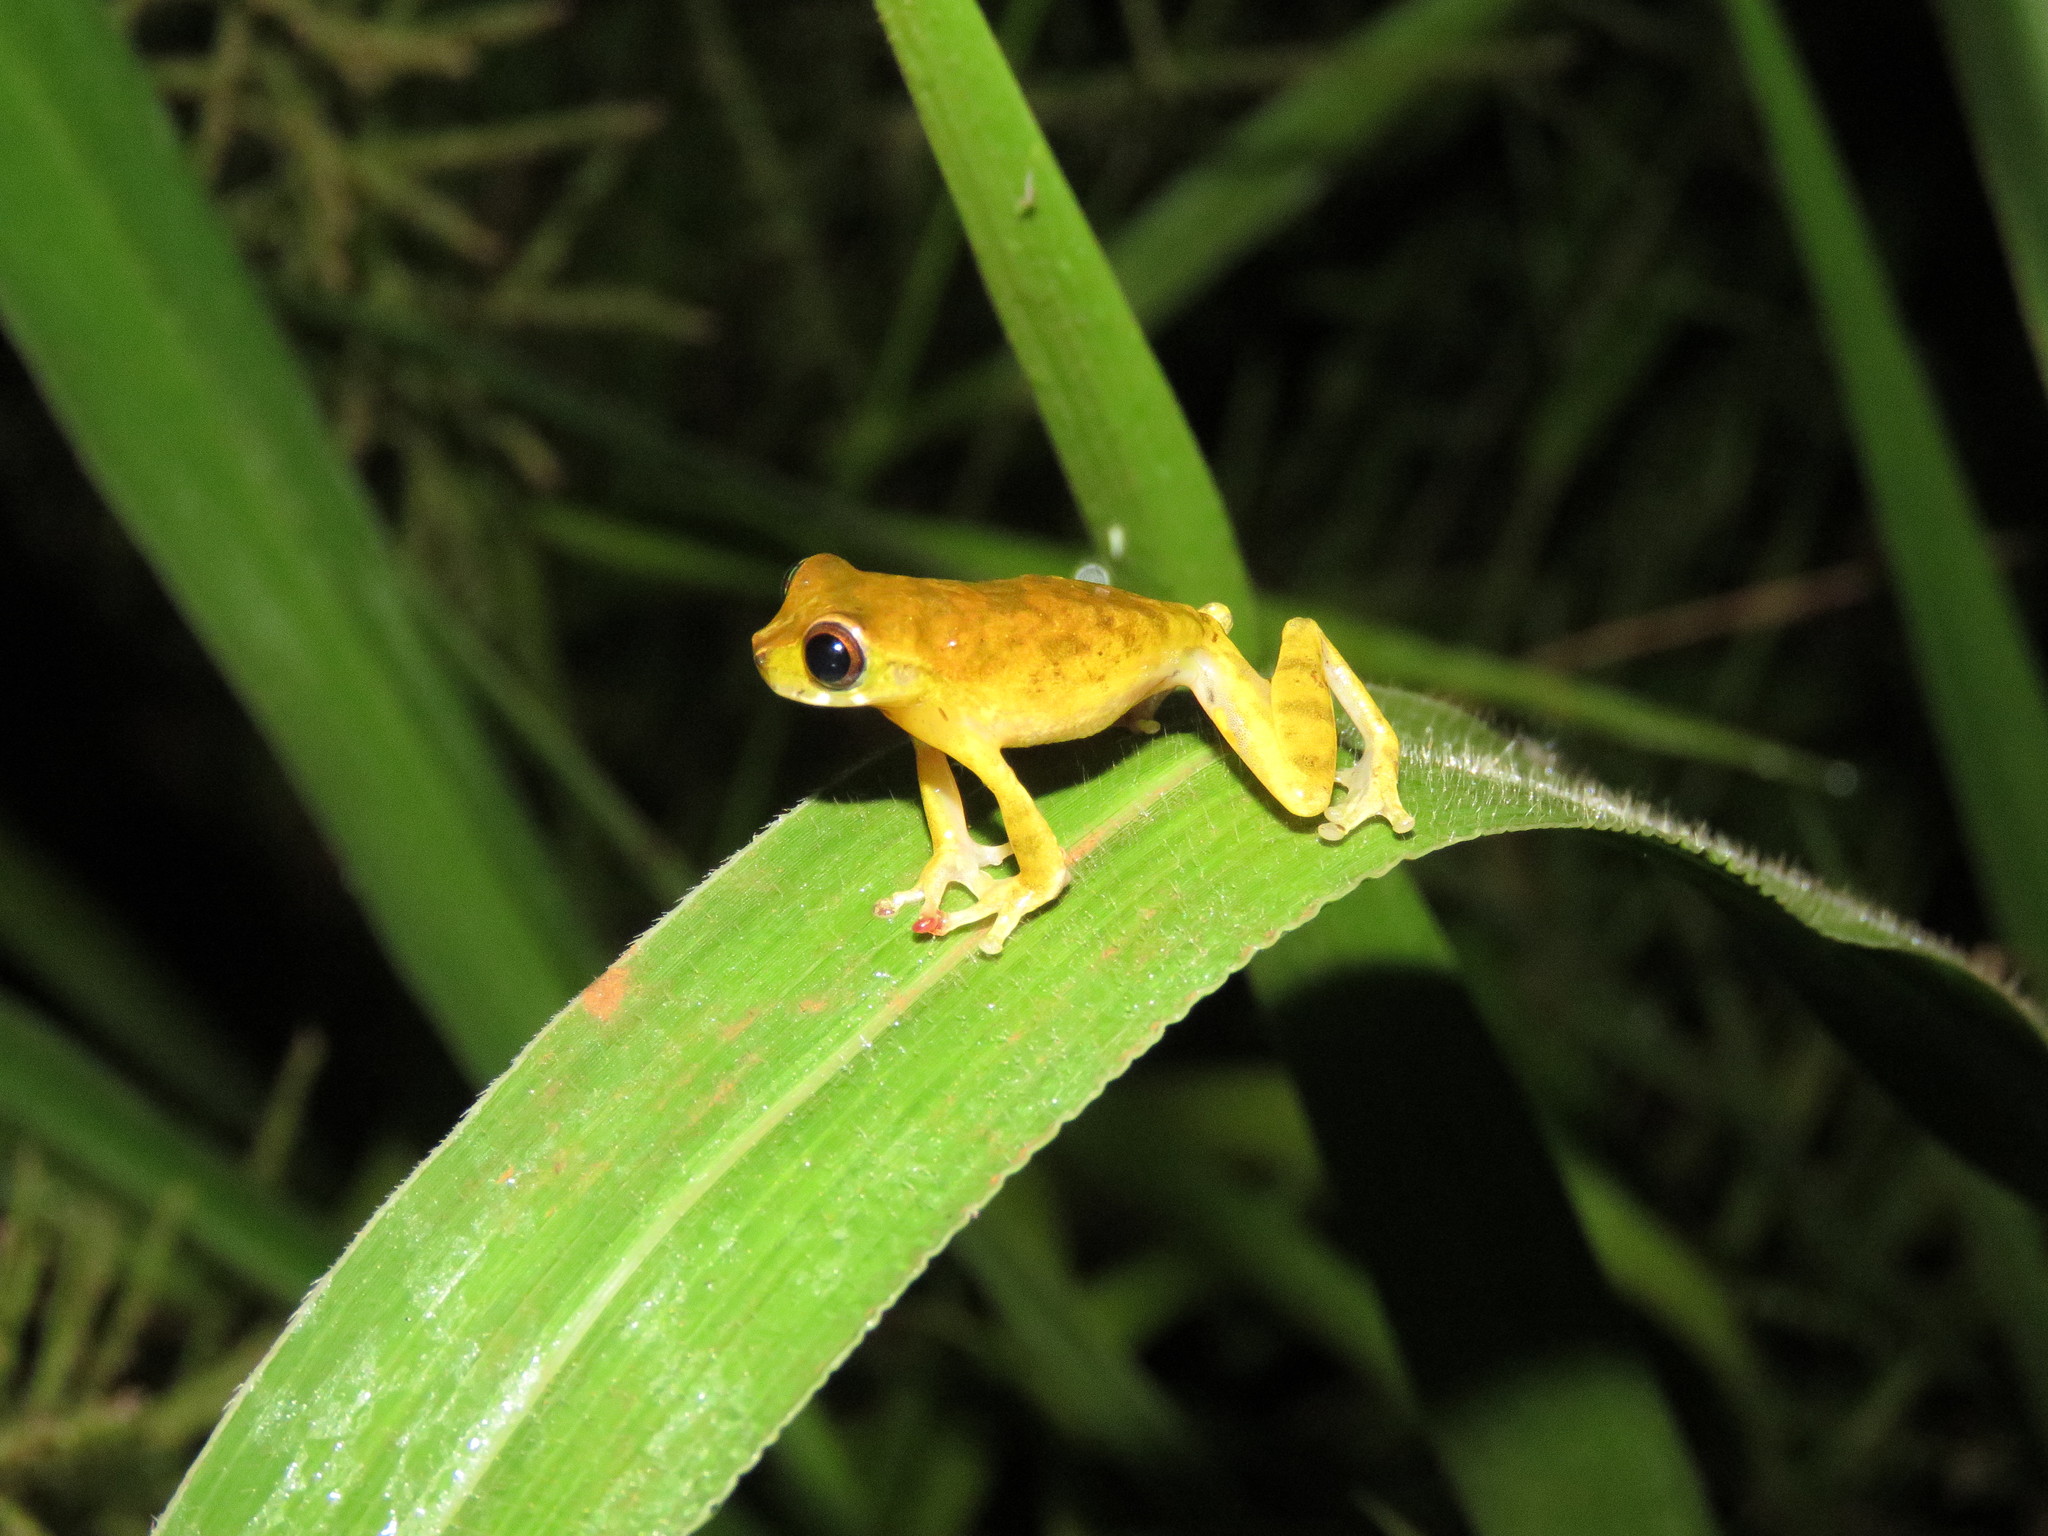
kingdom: Animalia
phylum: Chordata
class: Amphibia
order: Anura
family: Hylidae
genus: Dendropsophus
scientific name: Dendropsophus delarivai
